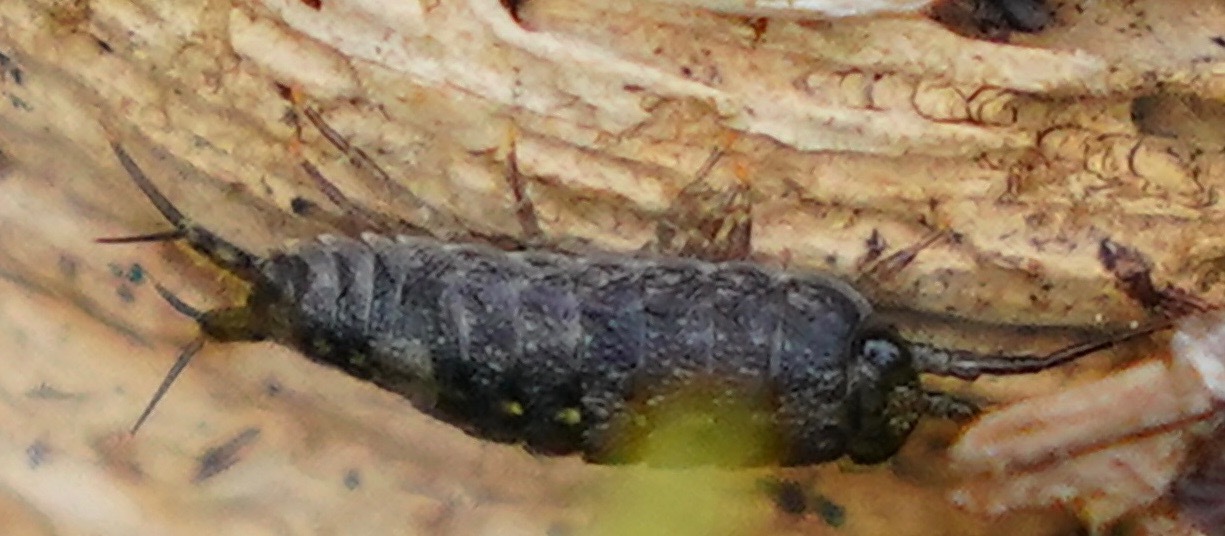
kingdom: Animalia
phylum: Arthropoda
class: Malacostraca
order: Isopoda
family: Ligiidae
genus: Ligia
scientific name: Ligia occidentalis
